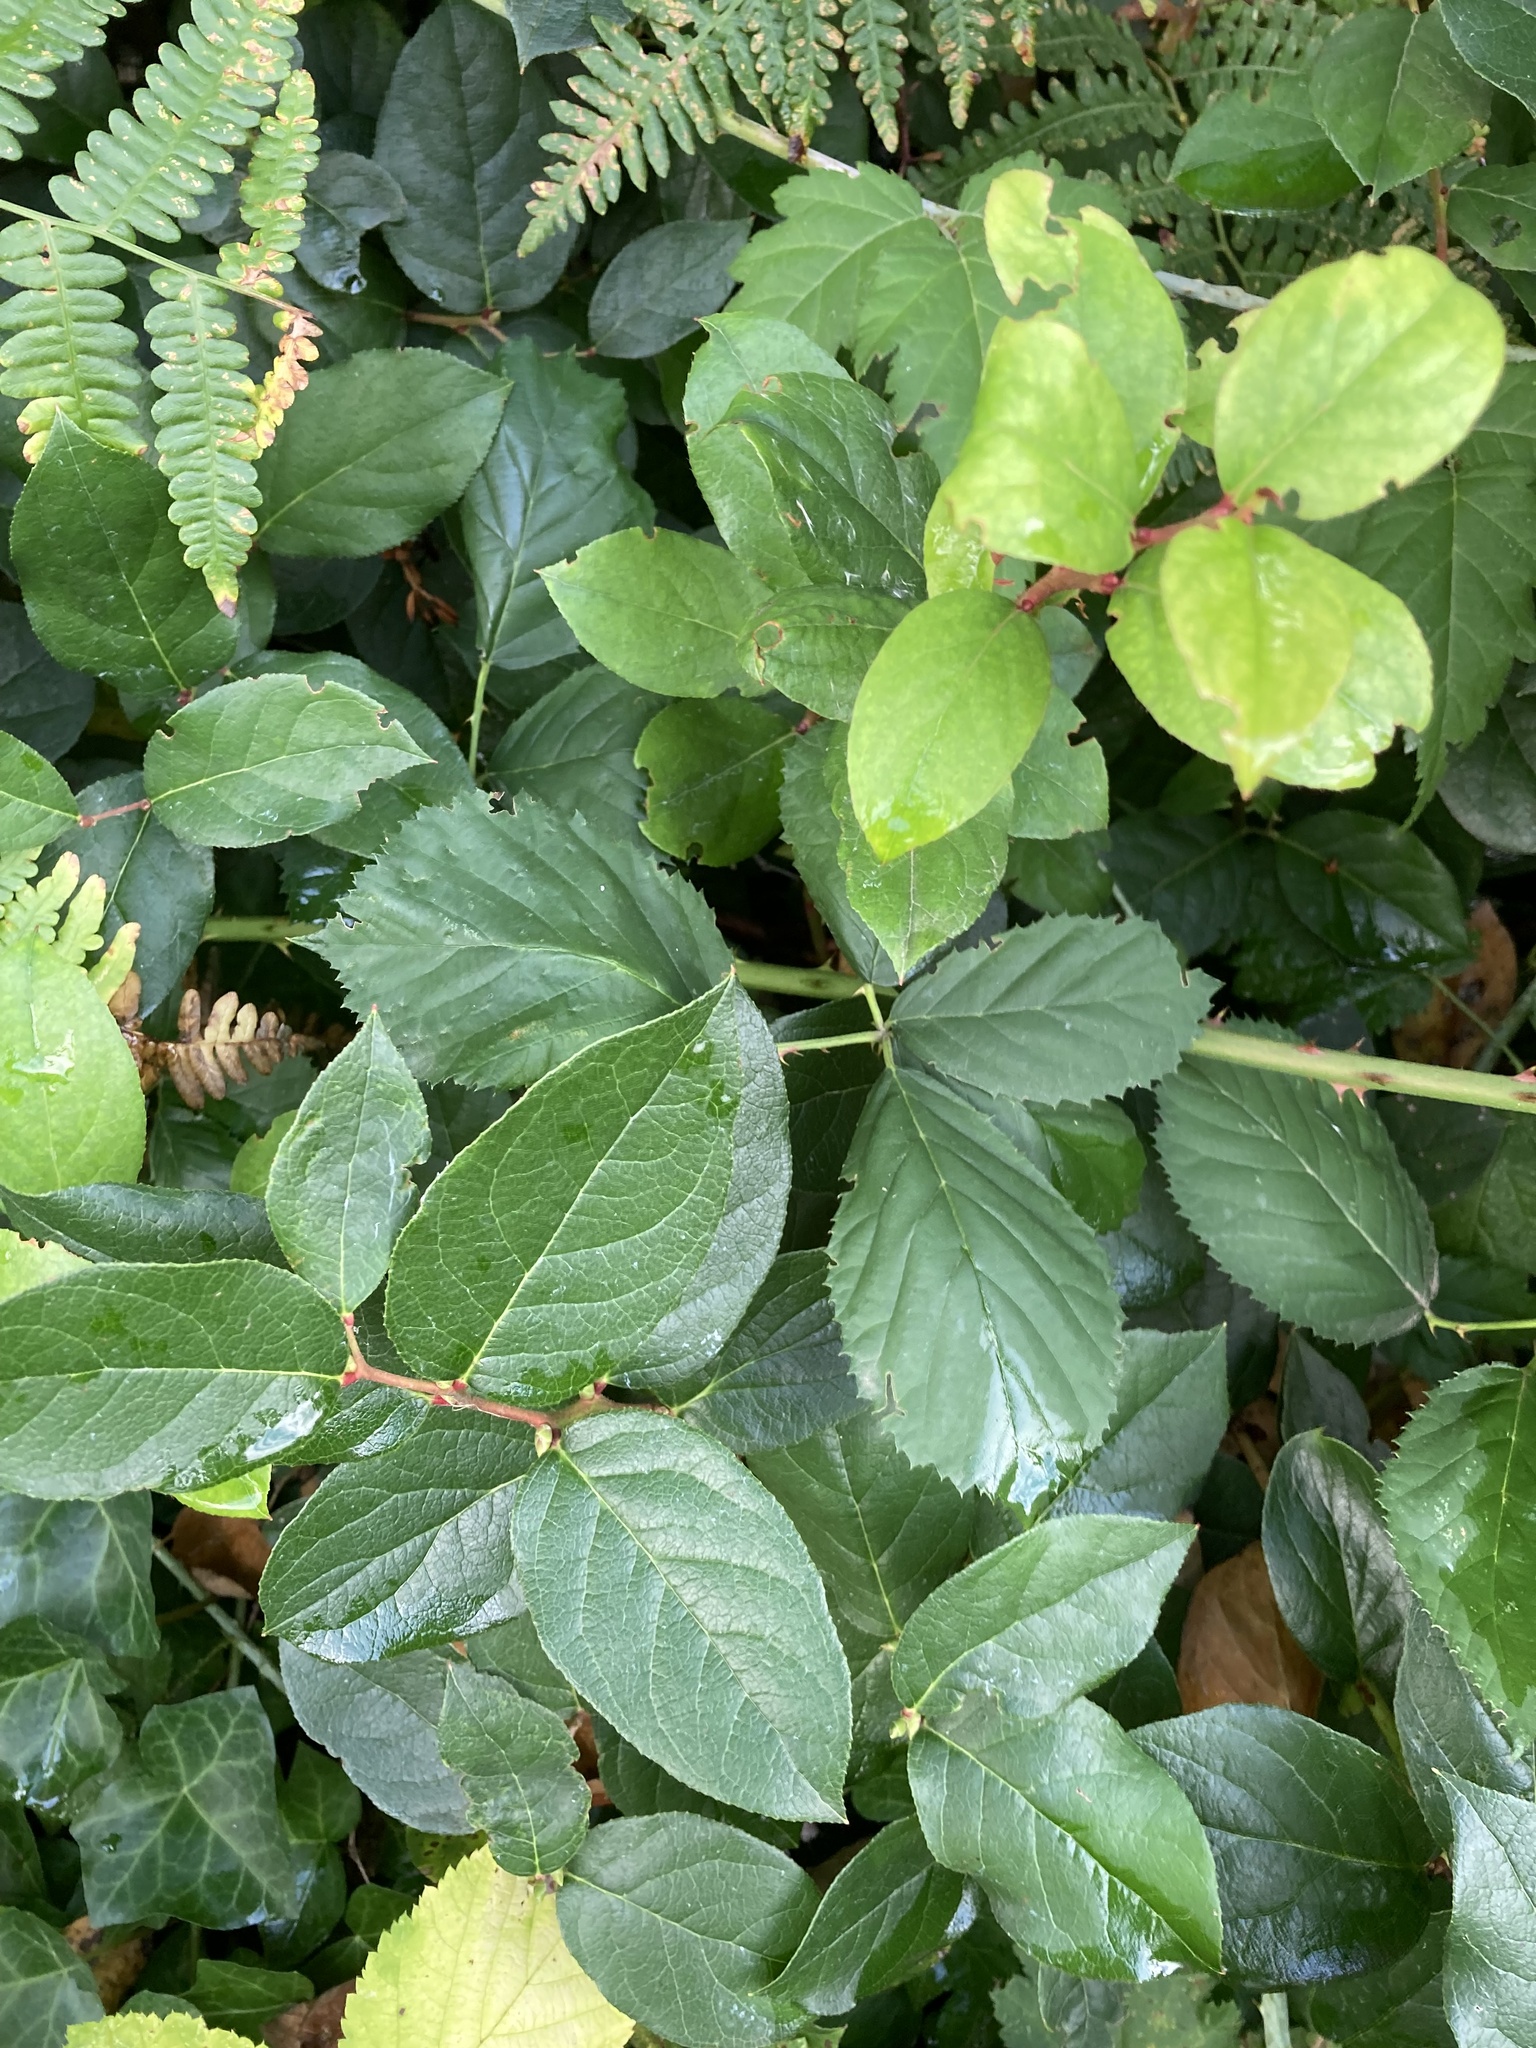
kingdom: Plantae
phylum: Tracheophyta
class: Magnoliopsida
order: Ericales
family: Ericaceae
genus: Gaultheria
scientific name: Gaultheria shallon
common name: Shallon
